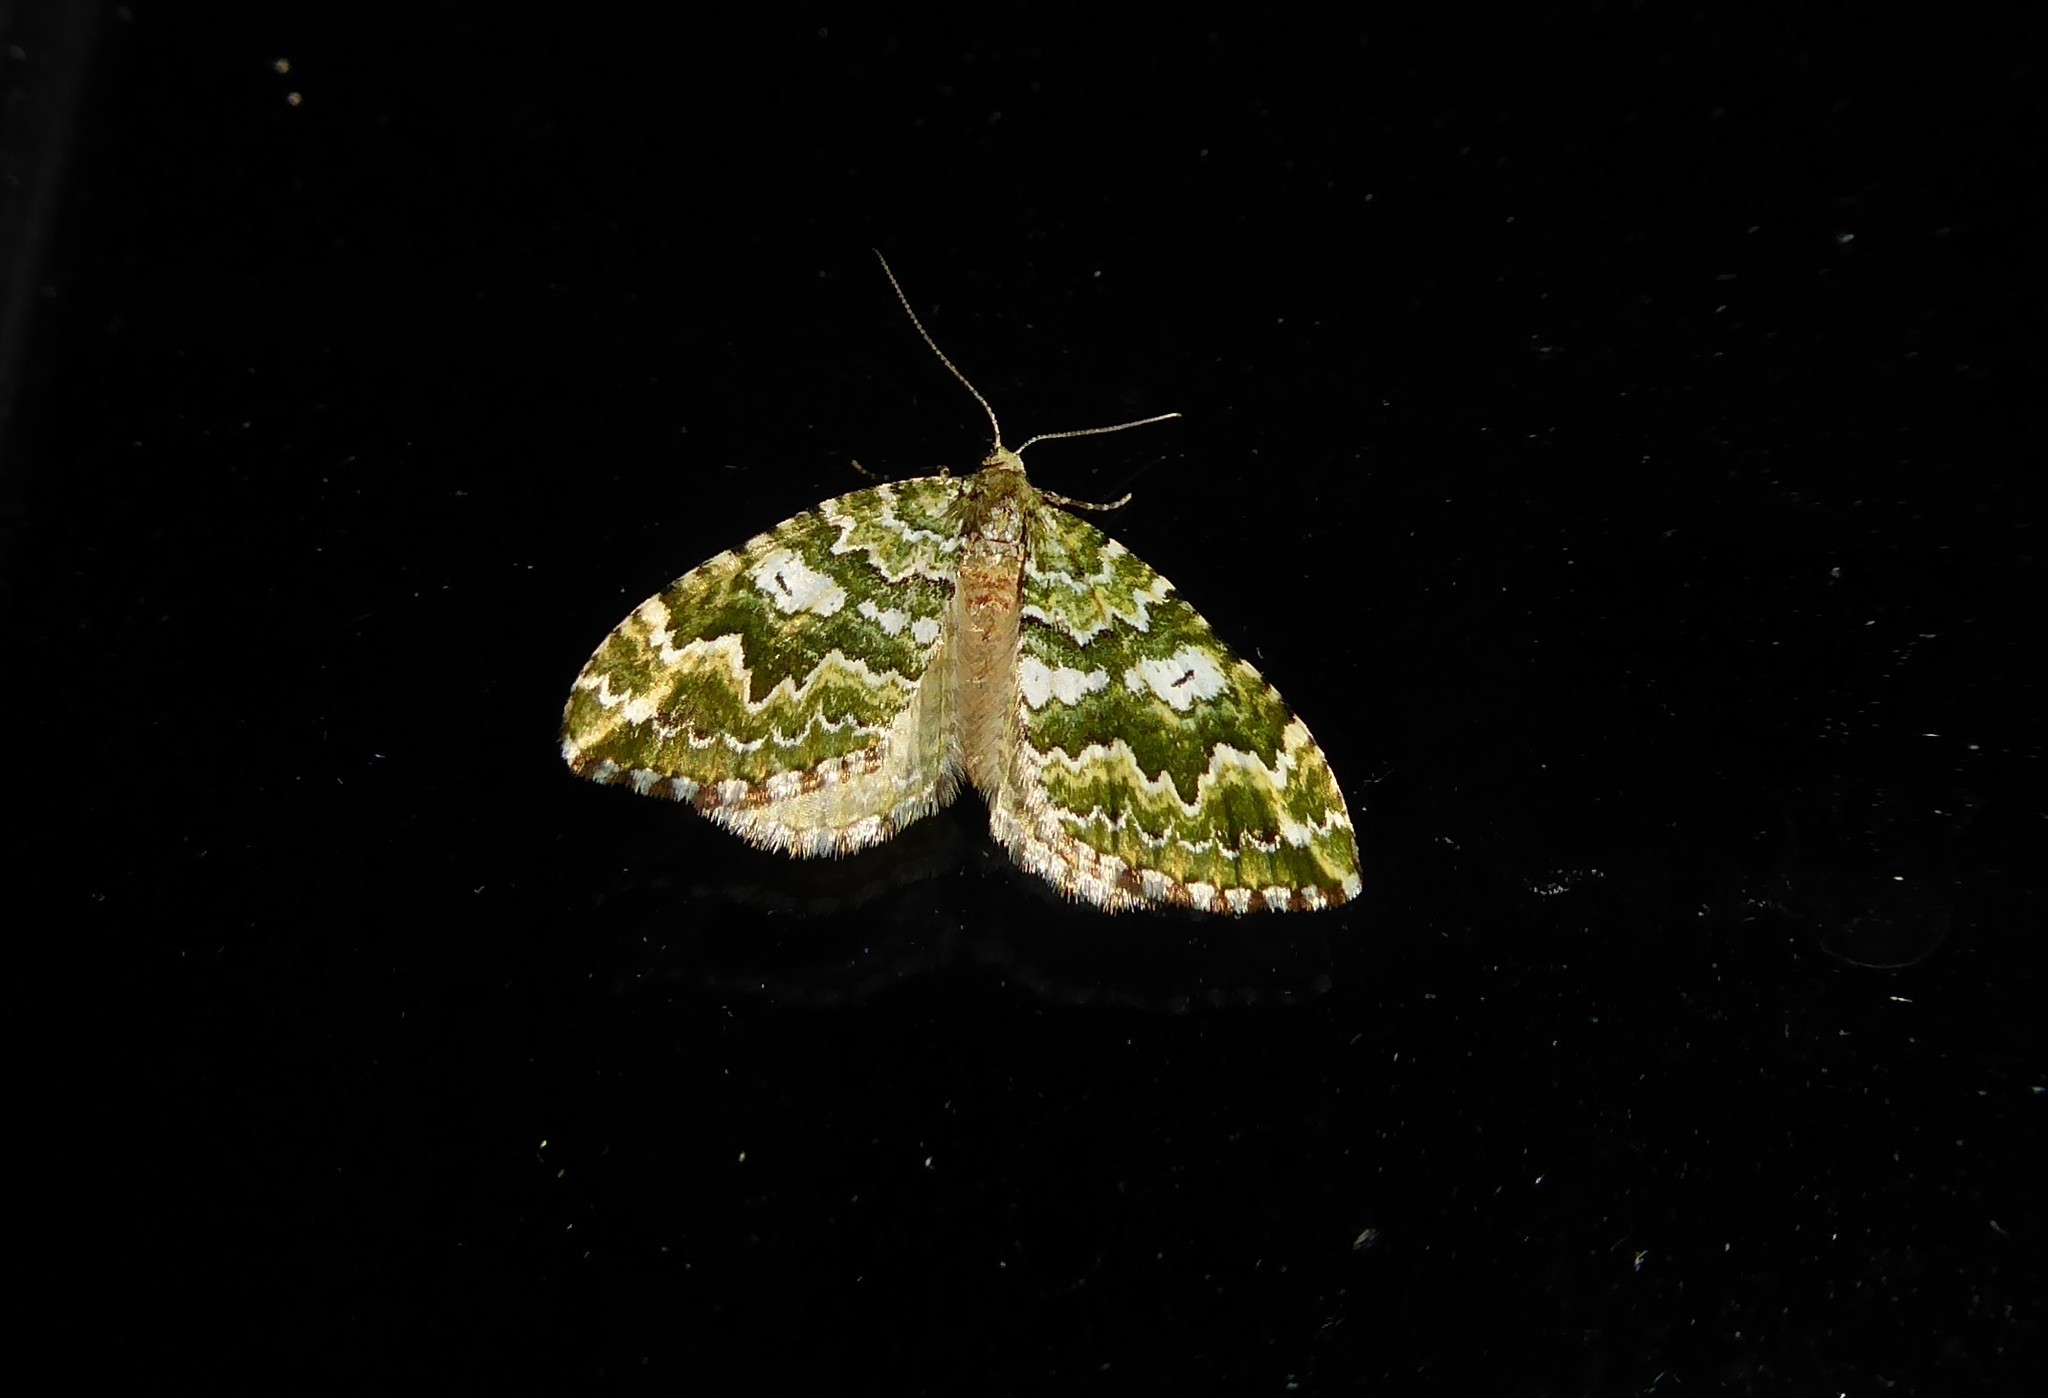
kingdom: Animalia
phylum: Arthropoda
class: Insecta
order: Lepidoptera
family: Geometridae
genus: Asaphodes
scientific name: Asaphodes beata
